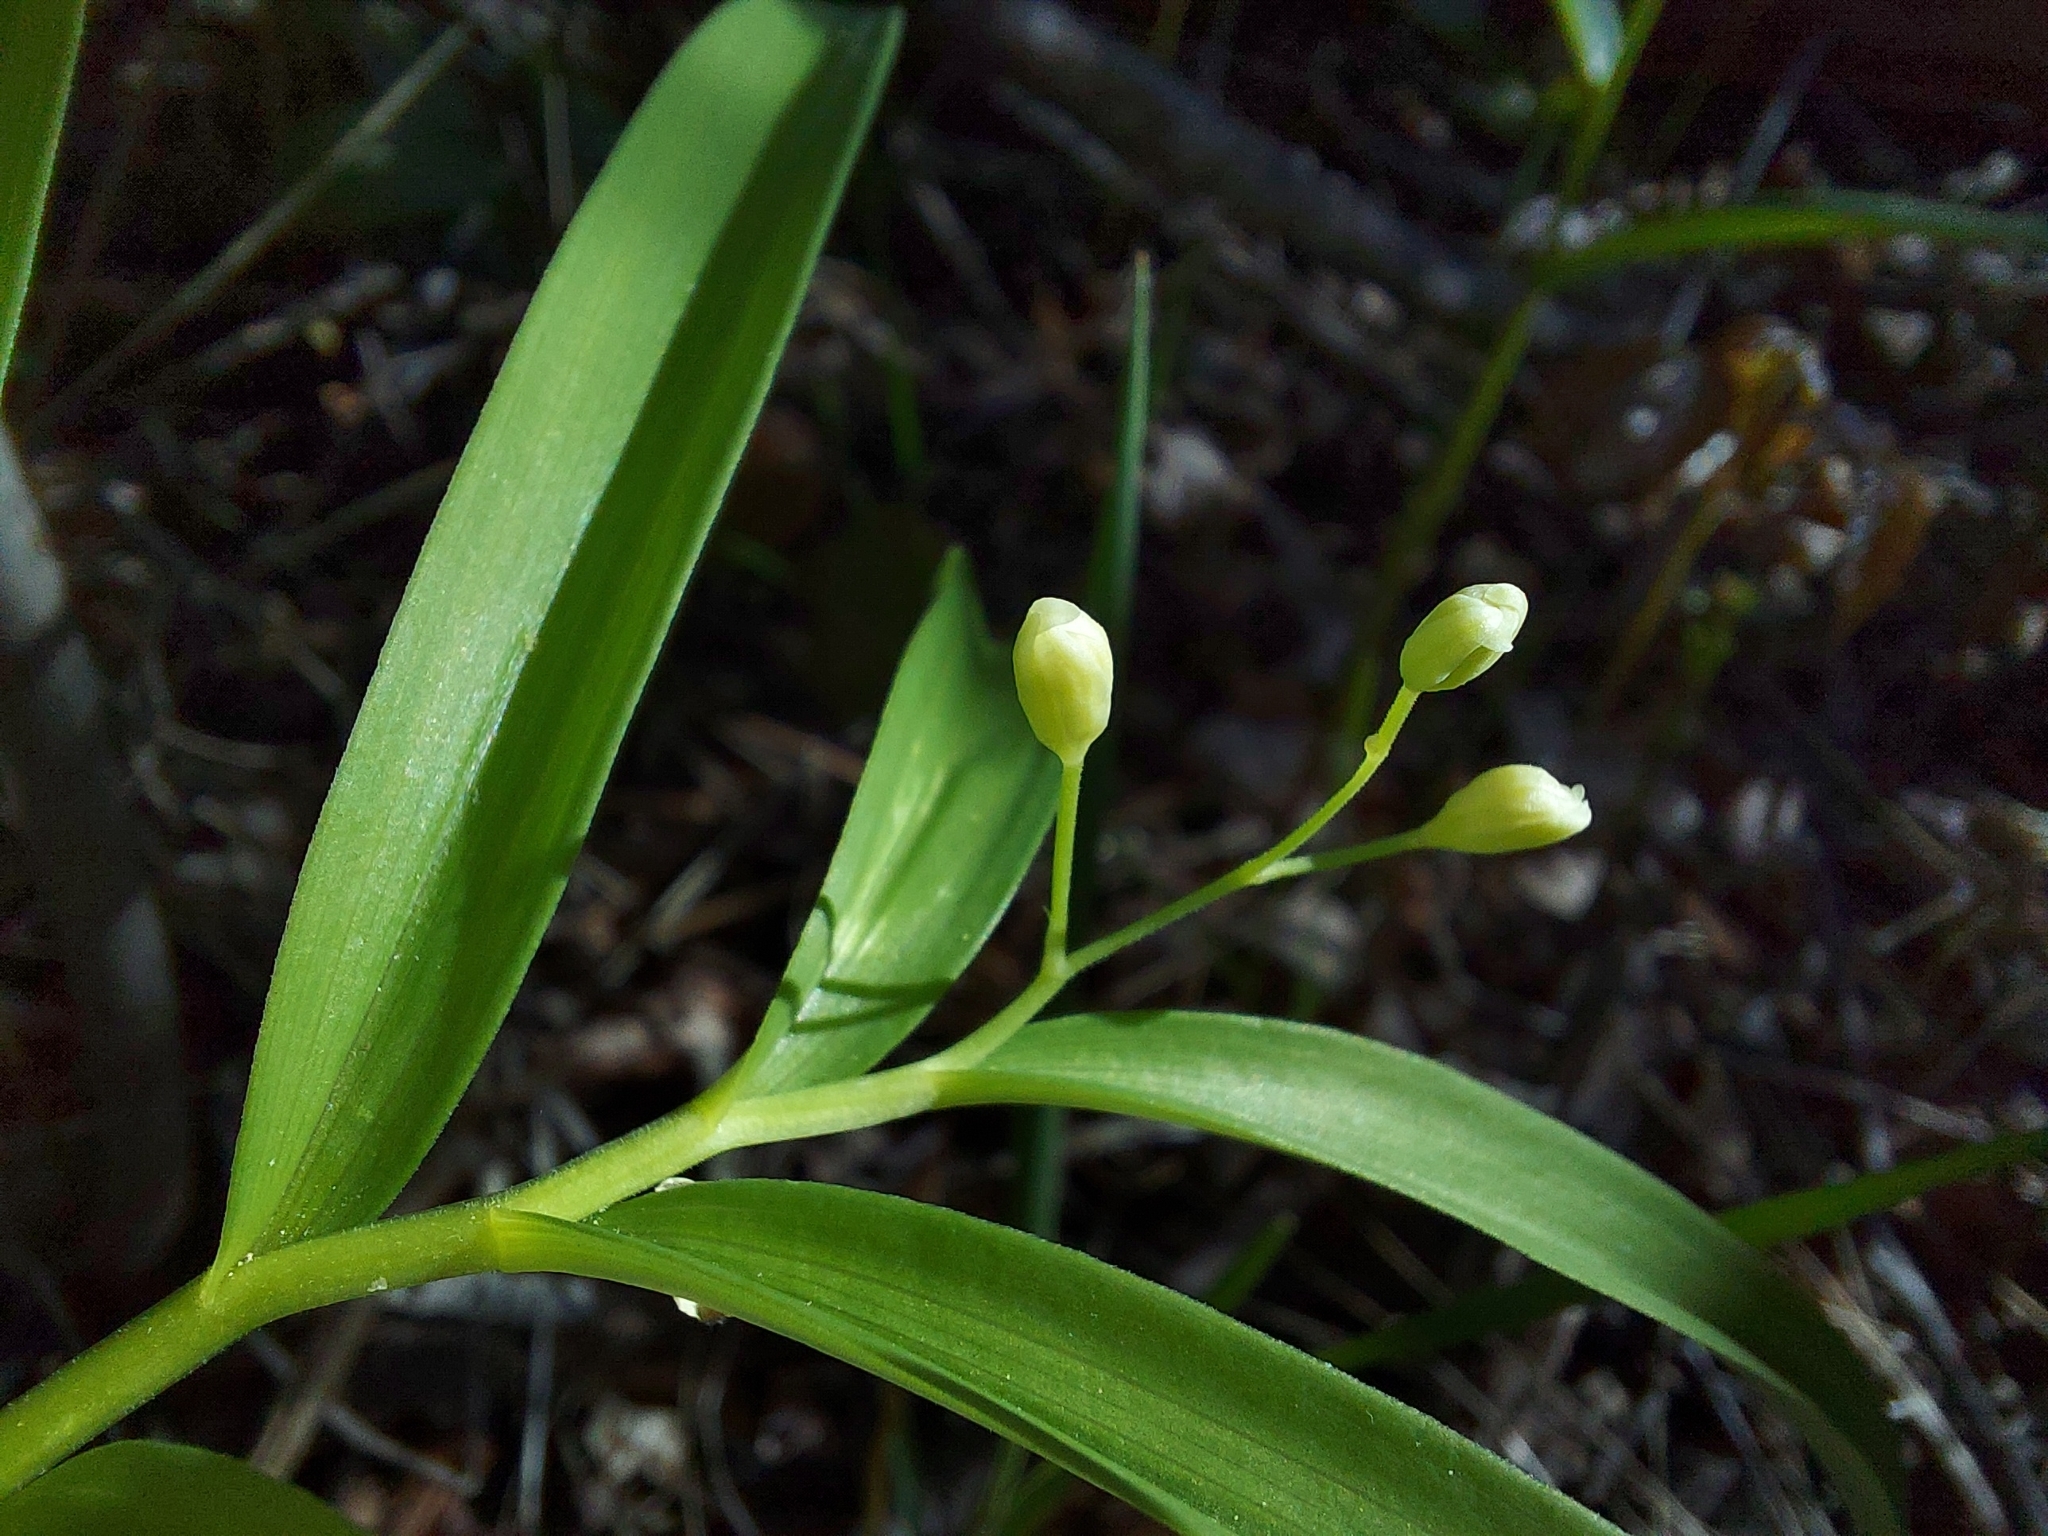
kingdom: Plantae
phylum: Tracheophyta
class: Liliopsida
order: Asparagales
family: Asparagaceae
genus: Maianthemum
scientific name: Maianthemum stellatum
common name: Little false solomon's seal
